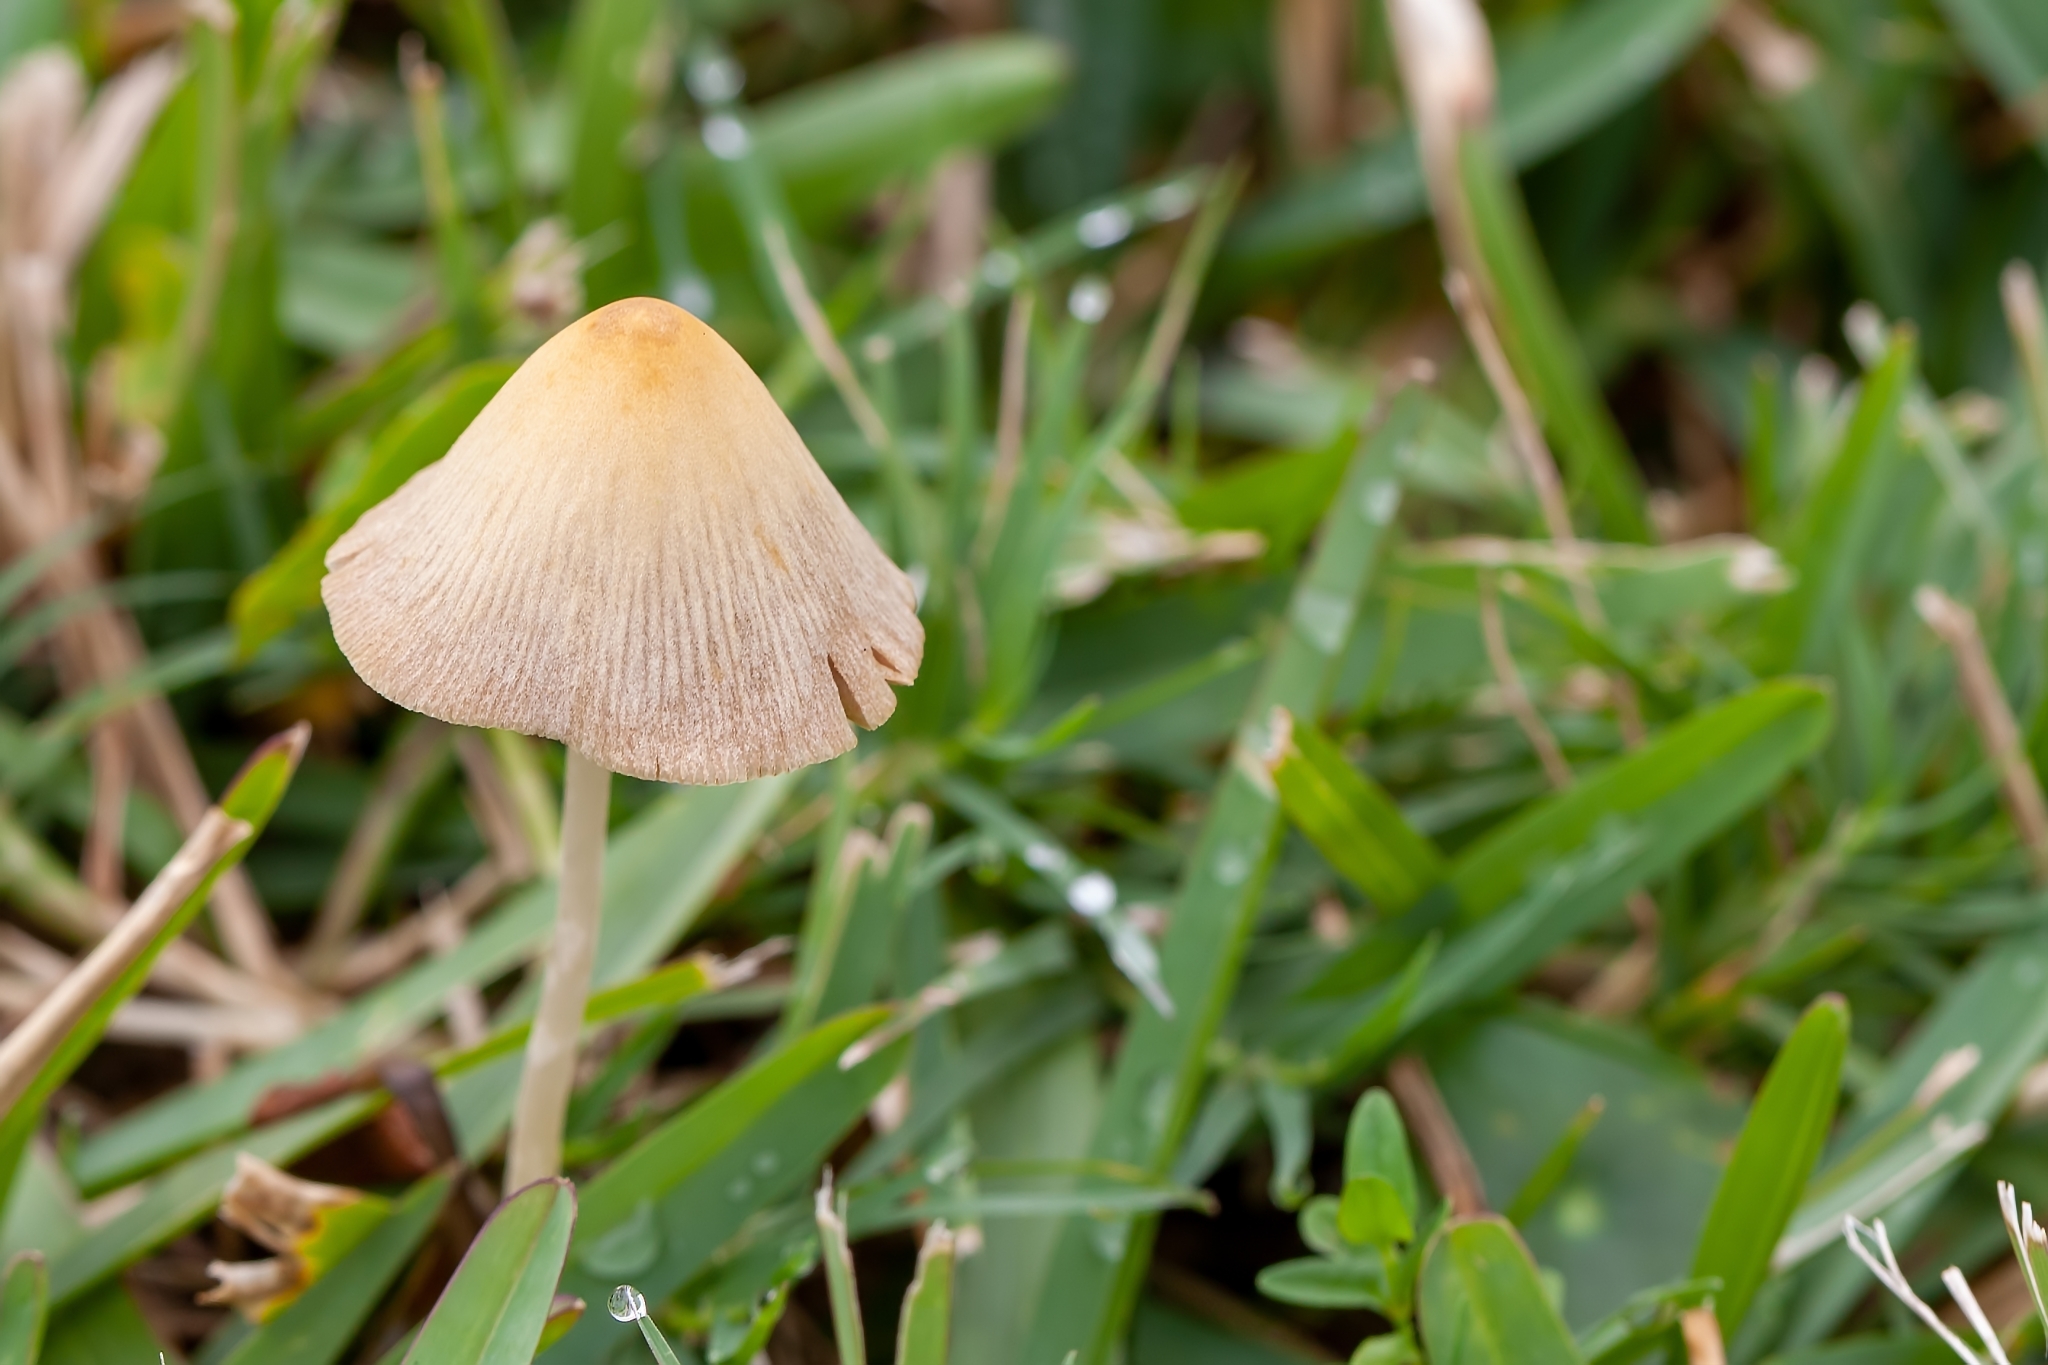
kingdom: Fungi
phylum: Basidiomycota
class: Agaricomycetes
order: Agaricales
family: Bolbitiaceae
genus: Conocybe
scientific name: Conocybe apala
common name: Milky conecap
